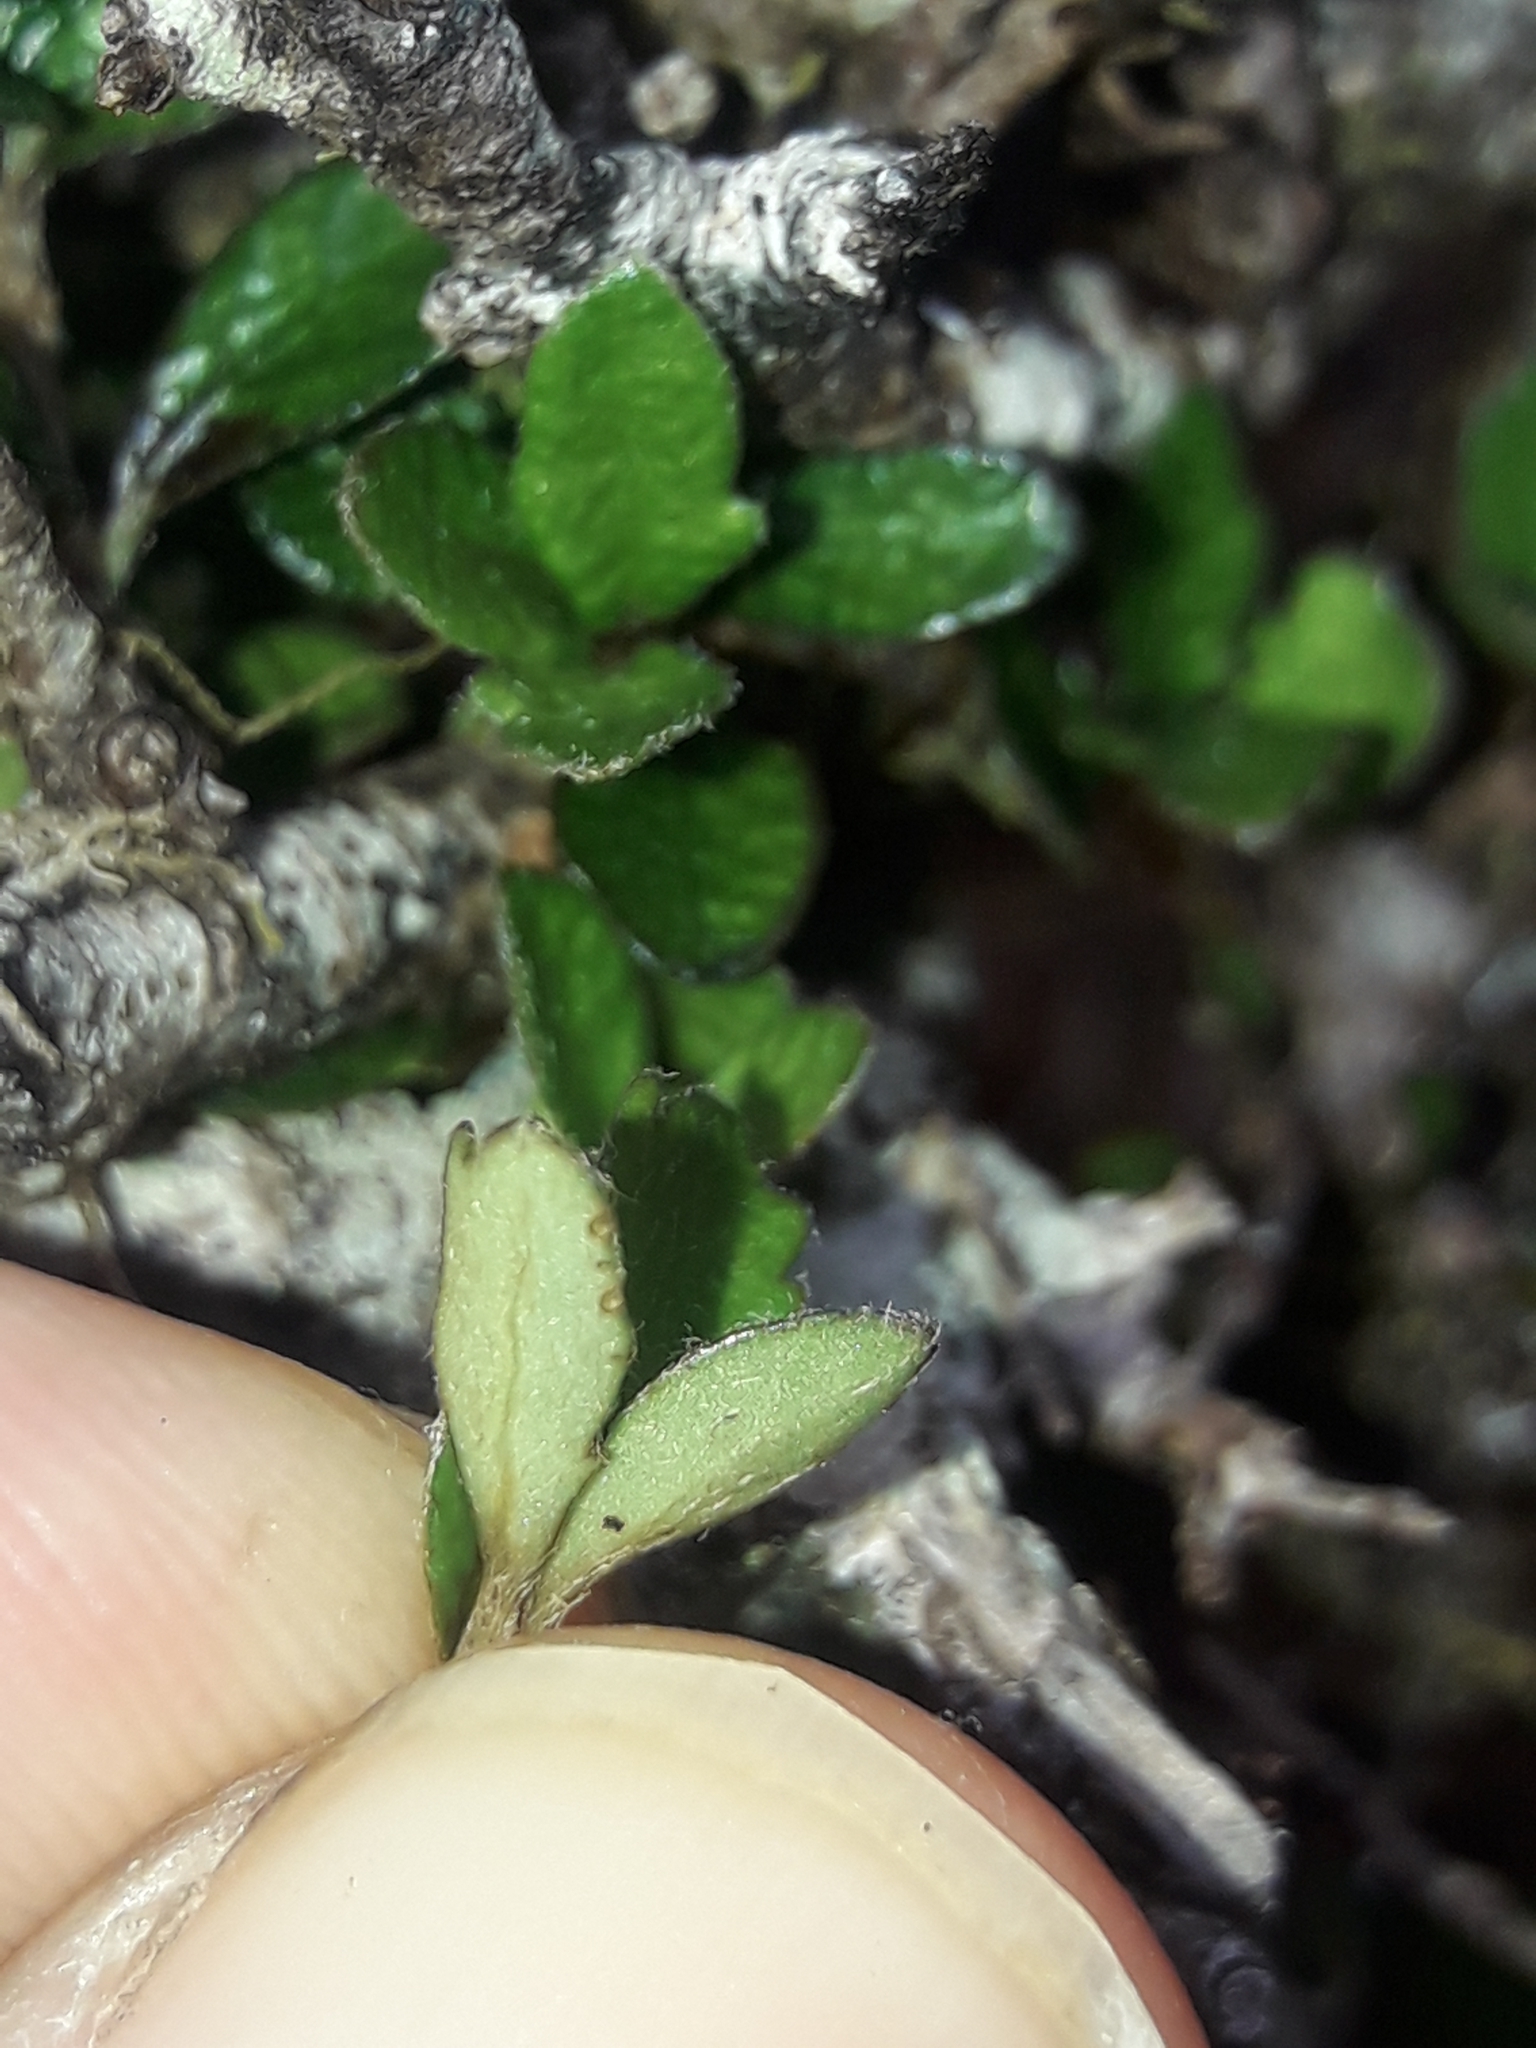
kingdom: Plantae
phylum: Tracheophyta
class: Magnoliopsida
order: Apiales
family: Pittosporaceae
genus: Pittosporum
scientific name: Pittosporum rigidum
